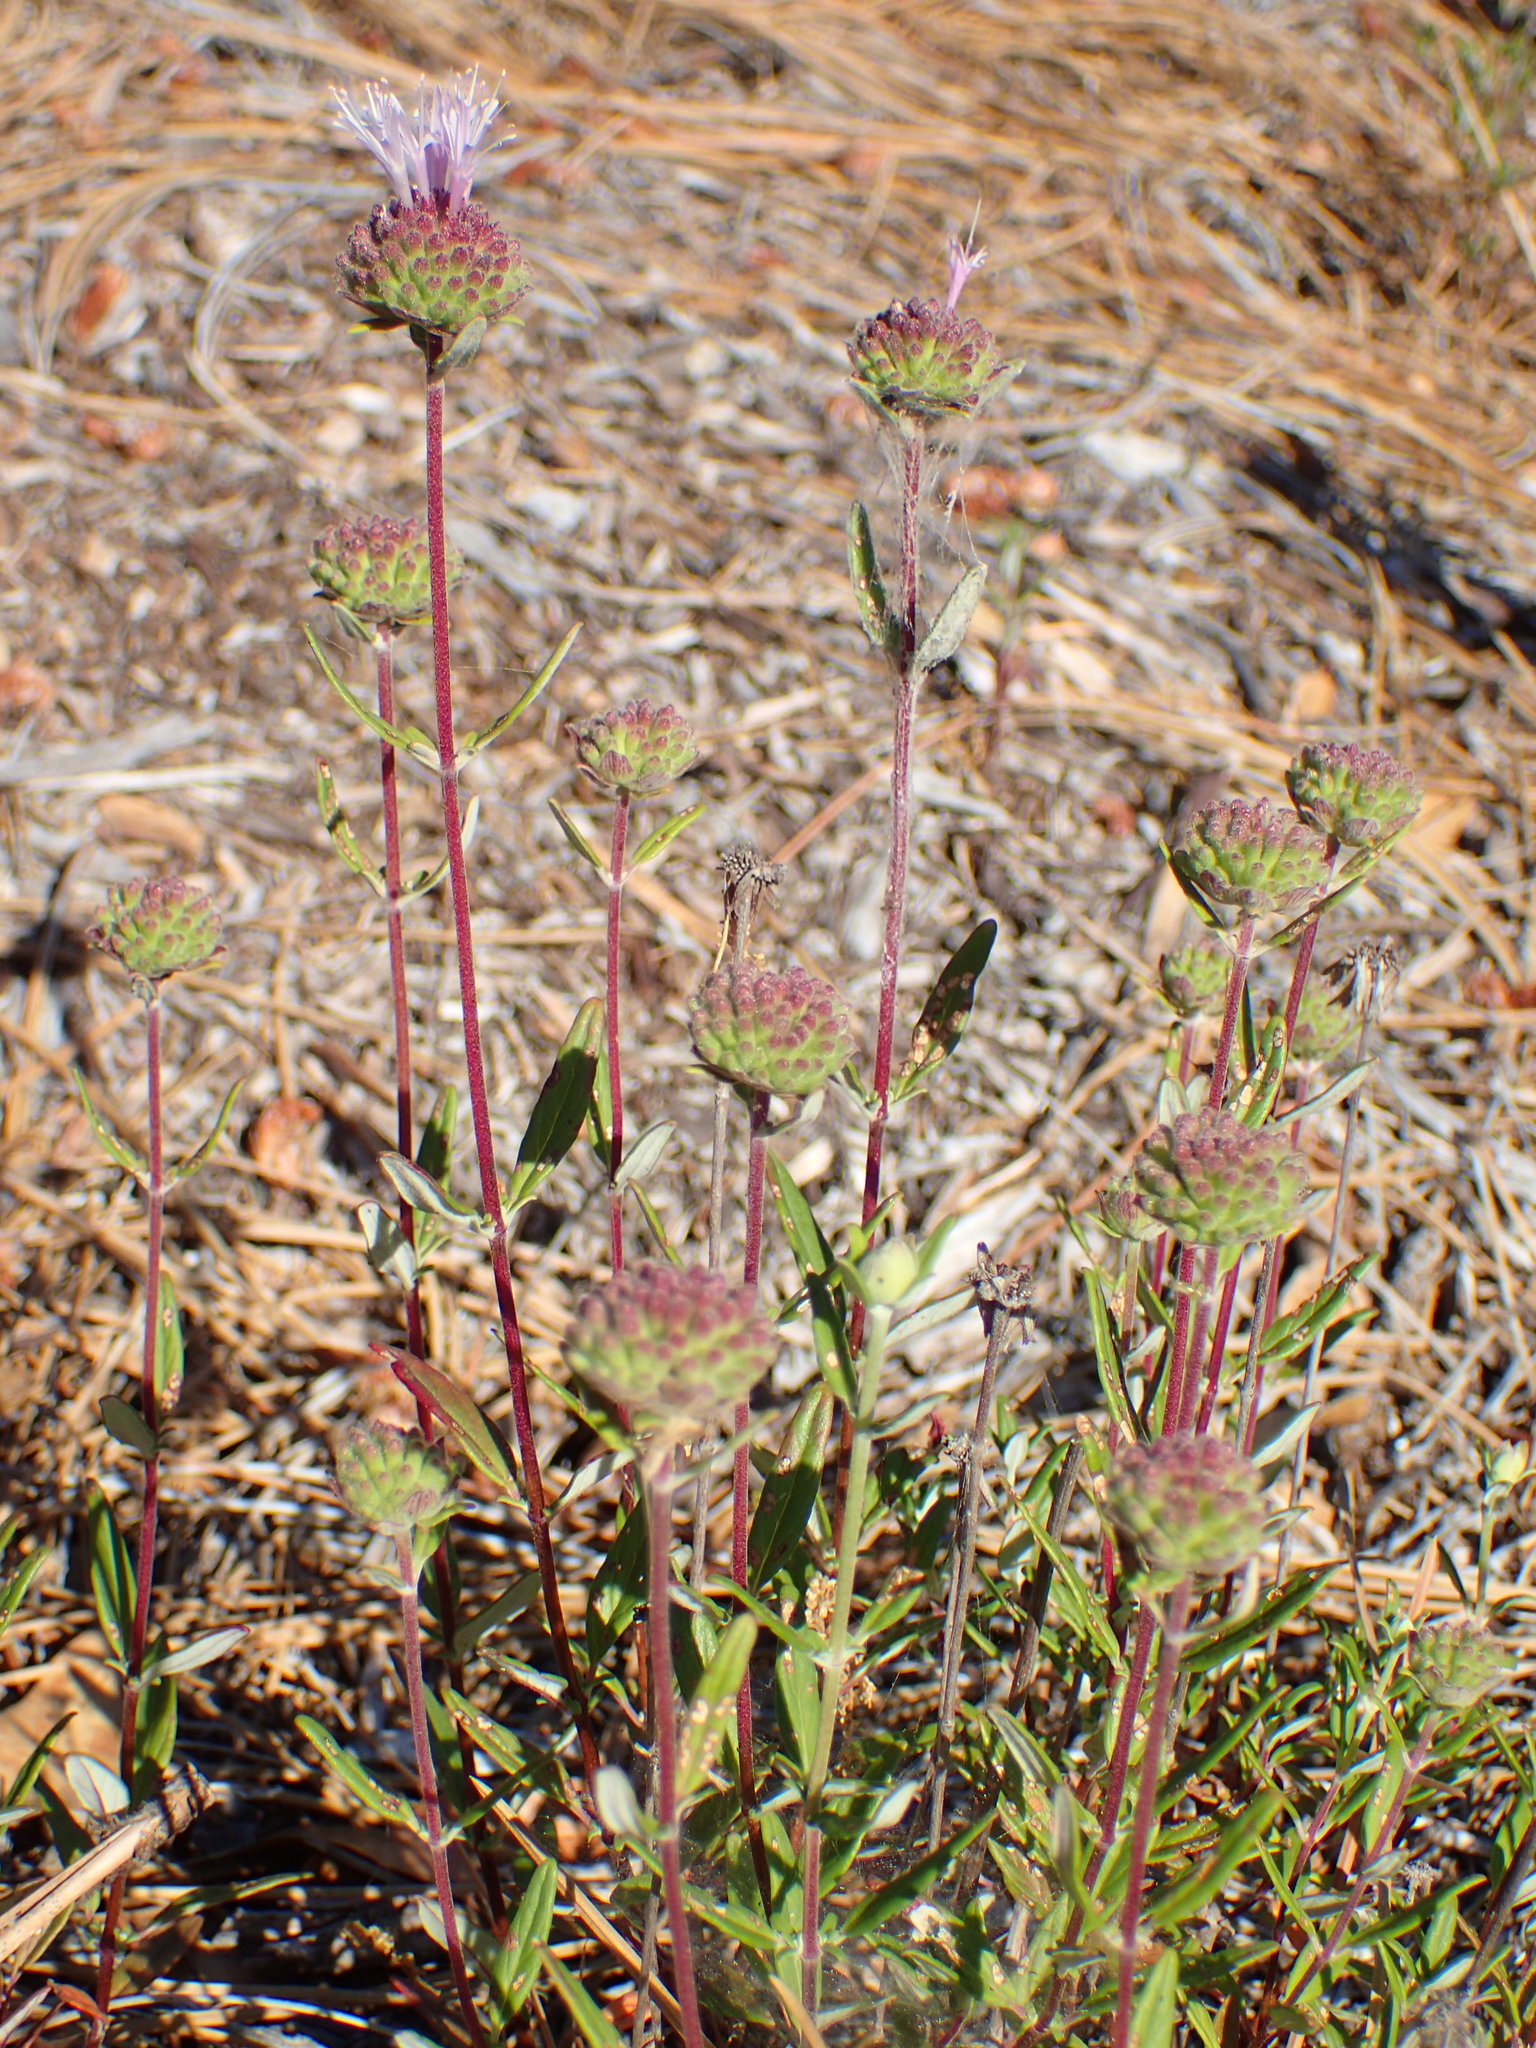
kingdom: Plantae
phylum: Tracheophyta
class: Magnoliopsida
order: Lamiales
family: Lamiaceae
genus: Monardella
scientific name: Monardella hypoleuca
